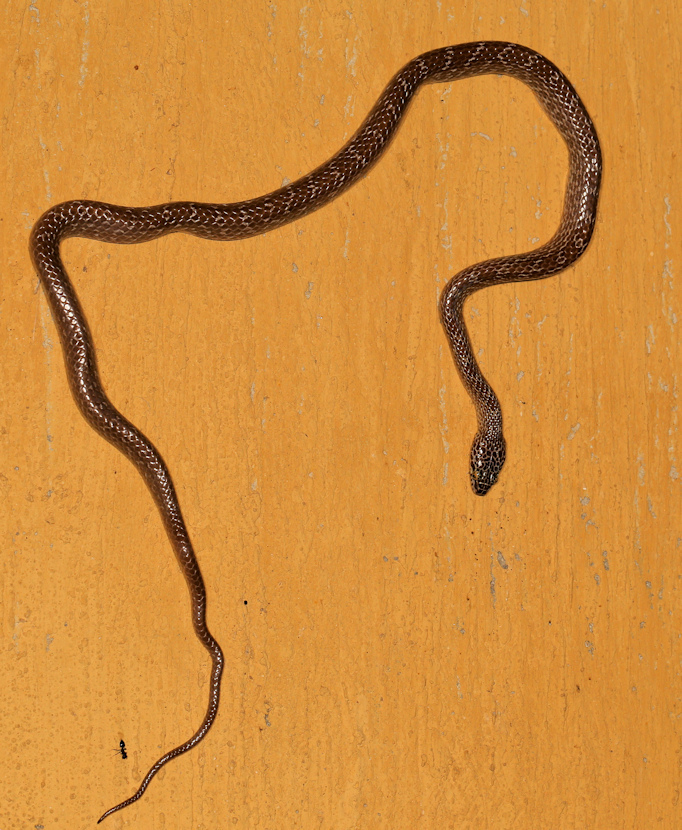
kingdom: Animalia
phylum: Chordata
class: Squamata
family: Colubridae
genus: Dipsadoboa
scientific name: Dipsadoboa aulica
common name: Cross-barred snake
